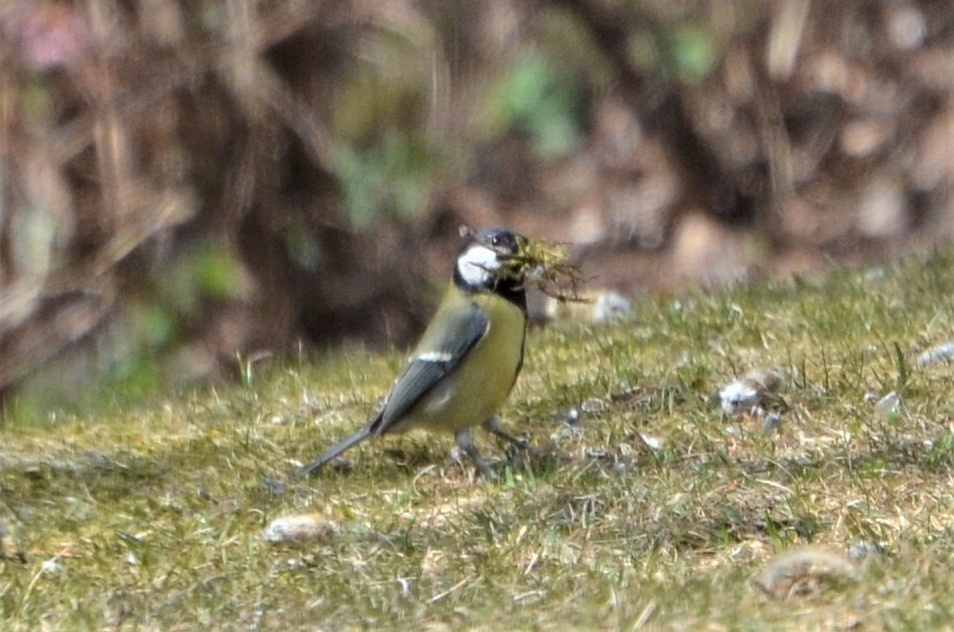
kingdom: Animalia
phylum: Chordata
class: Aves
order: Passeriformes
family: Paridae
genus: Parus
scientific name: Parus major
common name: Great tit
